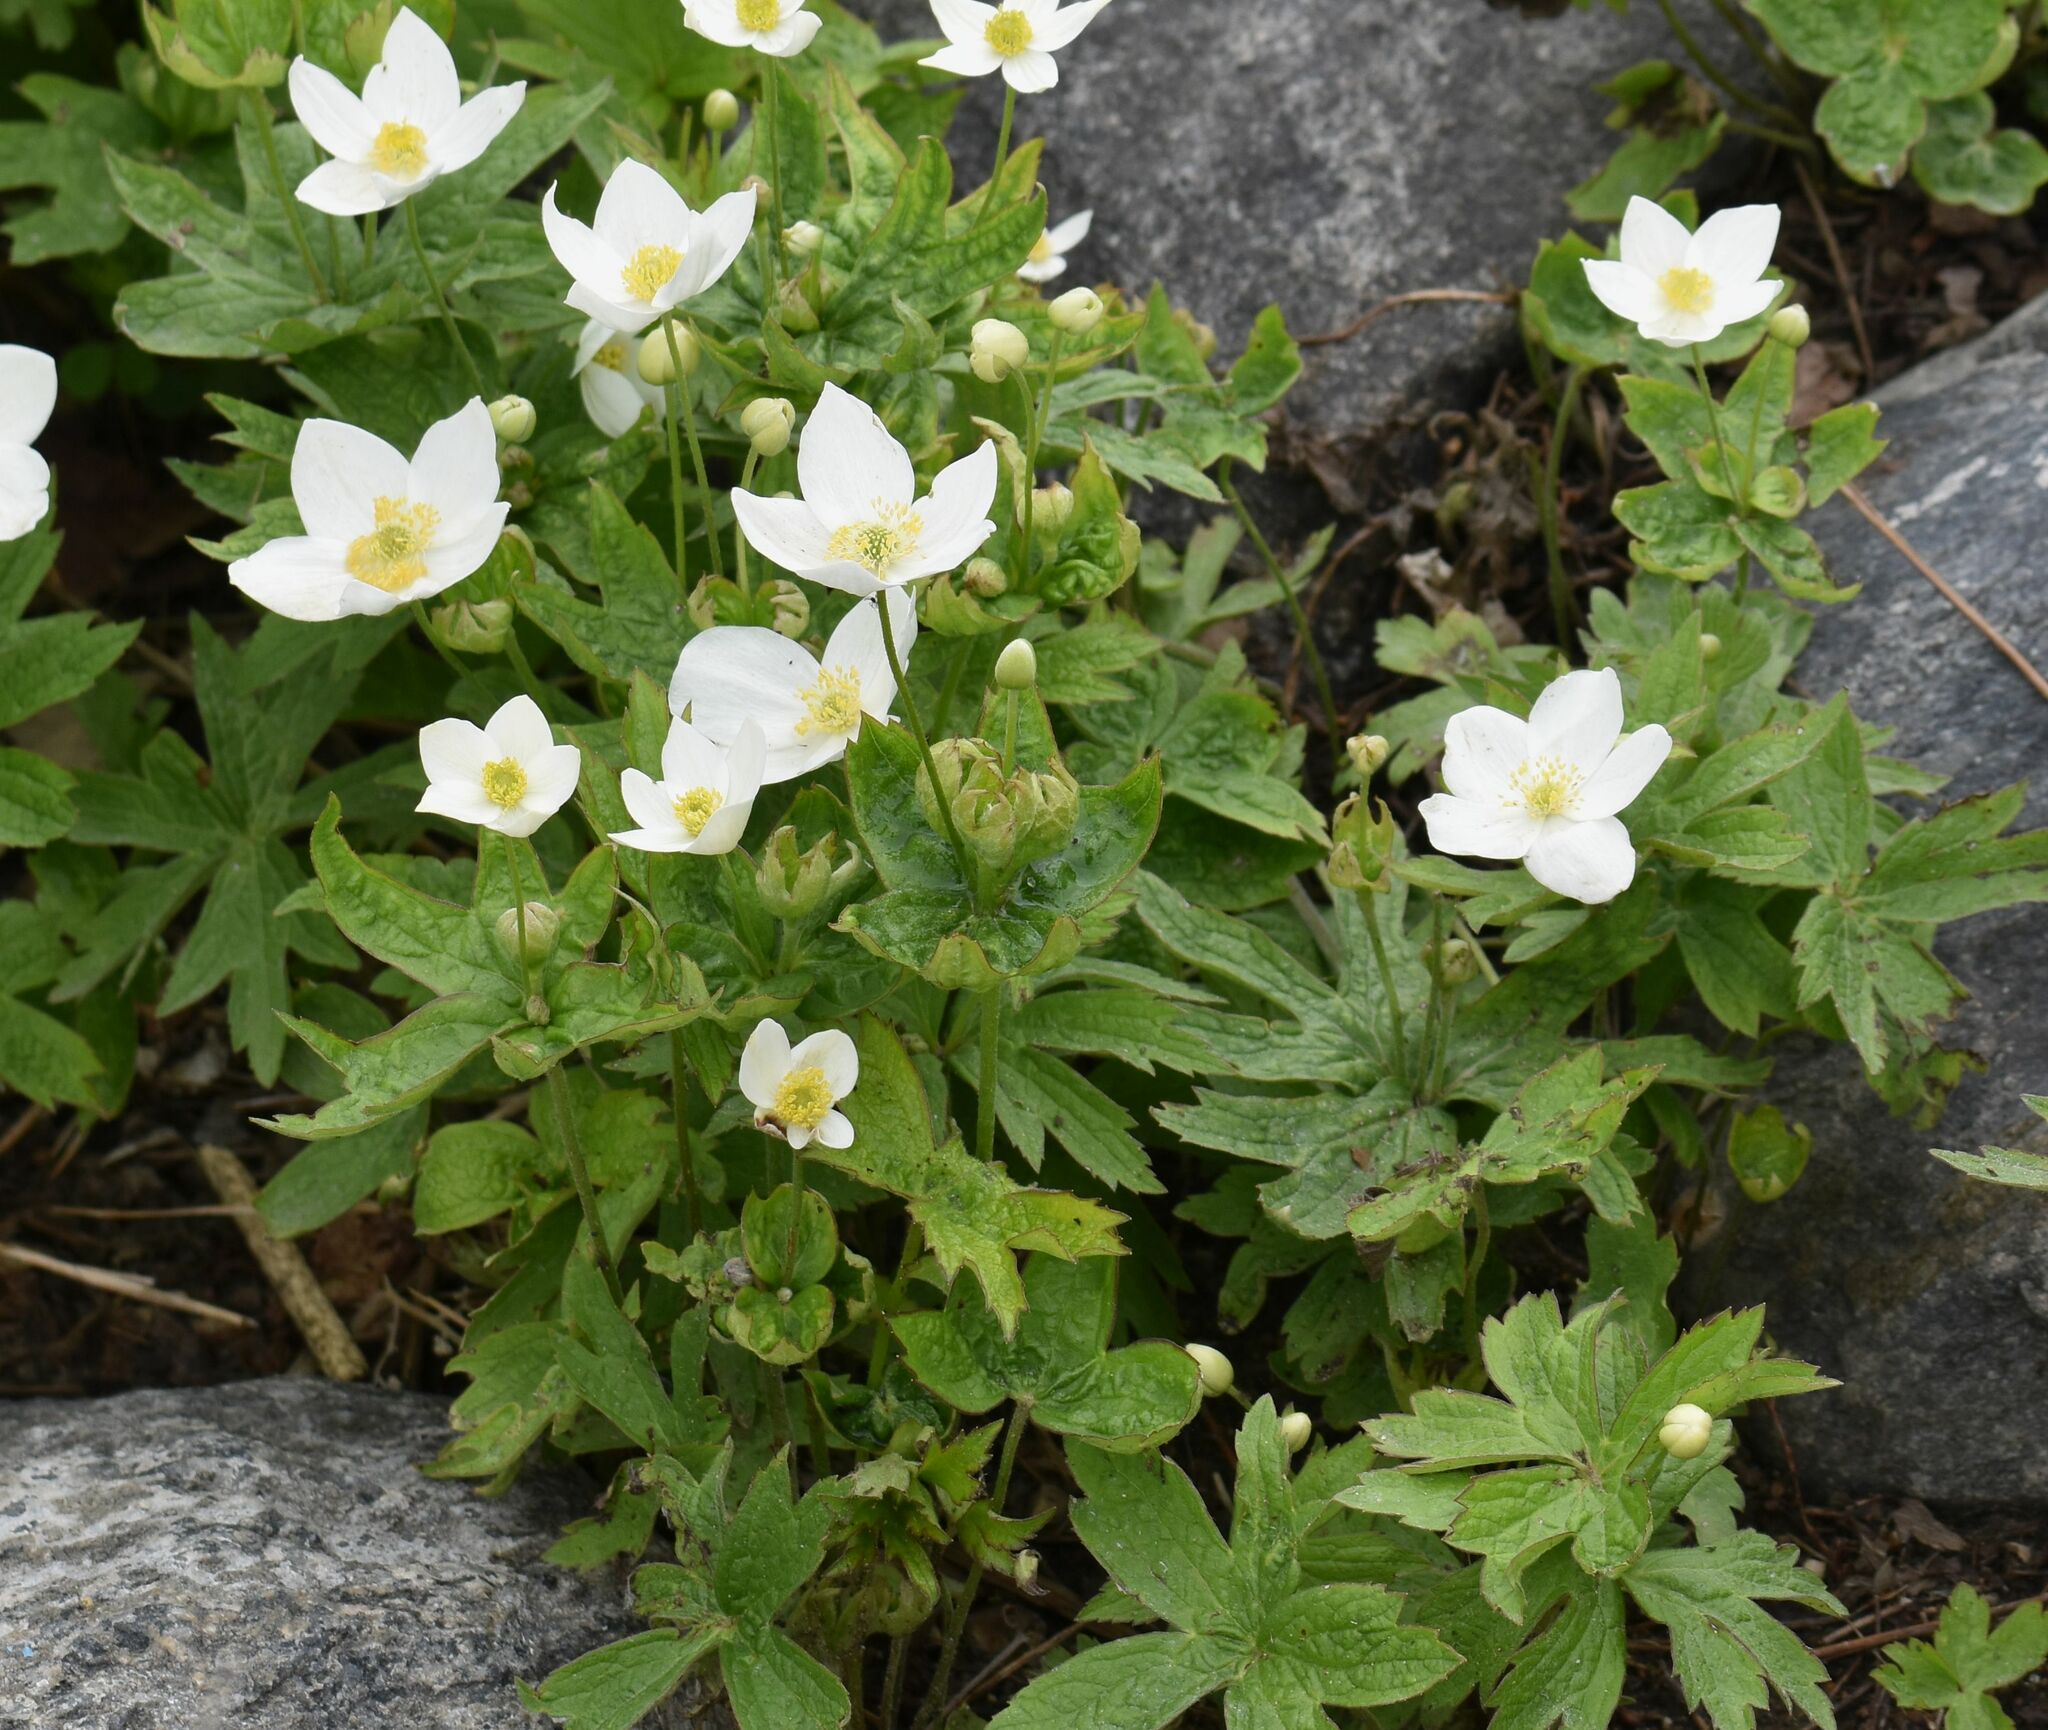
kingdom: Plantae
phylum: Tracheophyta
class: Magnoliopsida
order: Ranunculales
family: Ranunculaceae
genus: Anemonastrum
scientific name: Anemonastrum canadense
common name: Canada anemone
